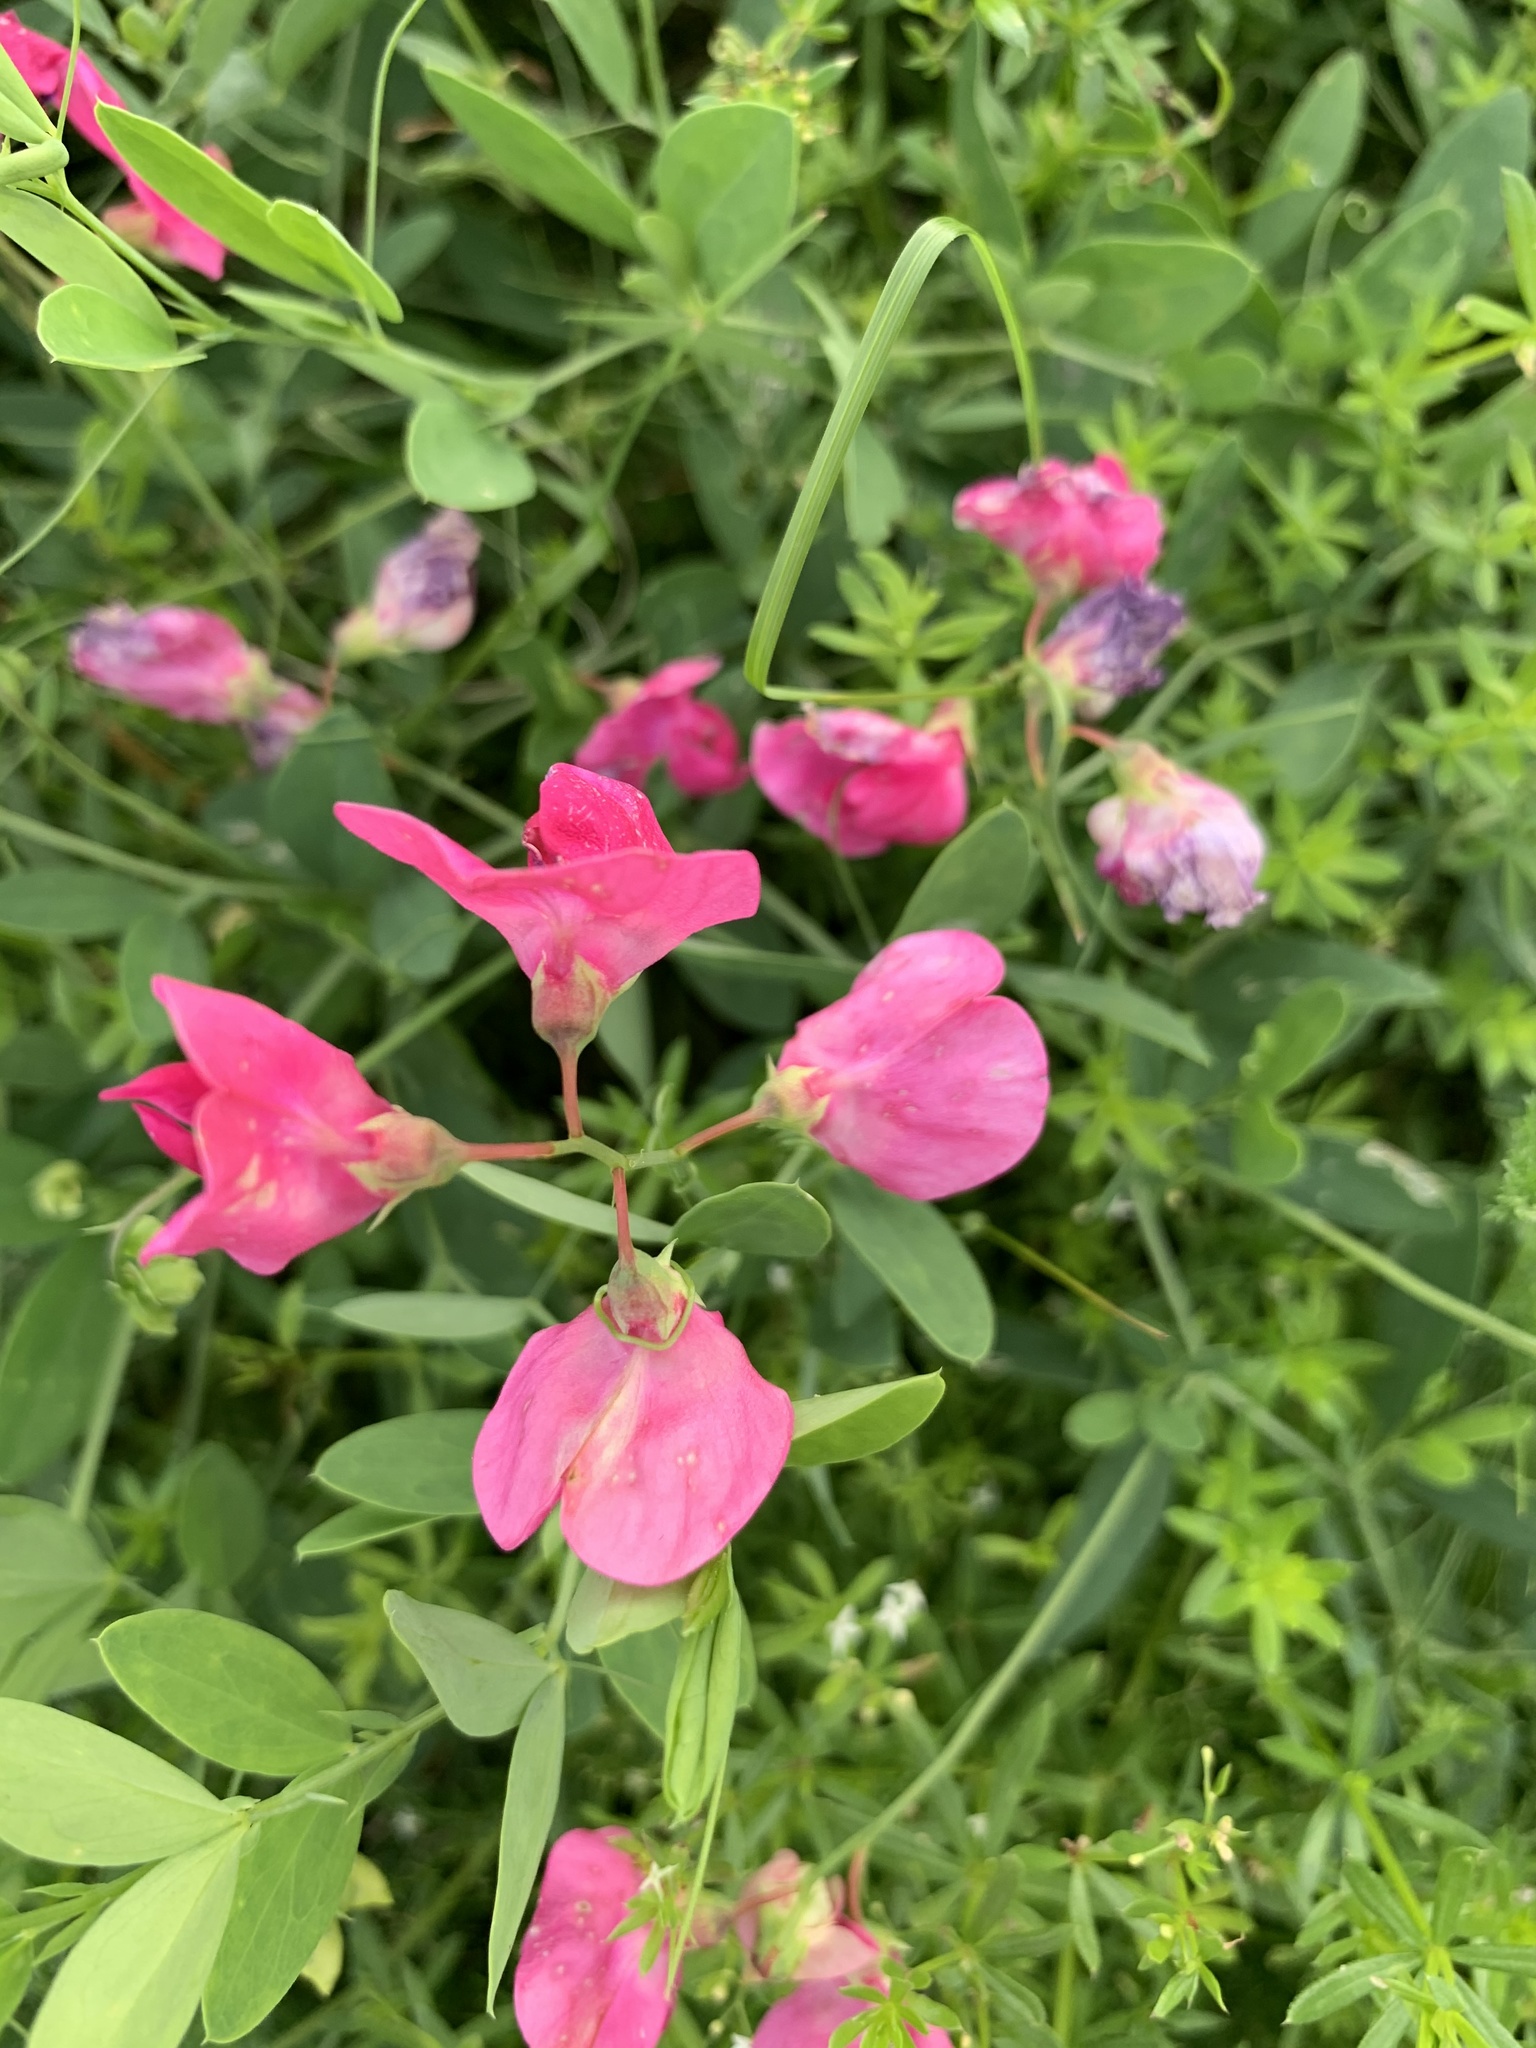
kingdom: Plantae
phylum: Tracheophyta
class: Magnoliopsida
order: Fabales
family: Fabaceae
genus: Lathyrus
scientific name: Lathyrus tuberosus
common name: Tuberous pea
